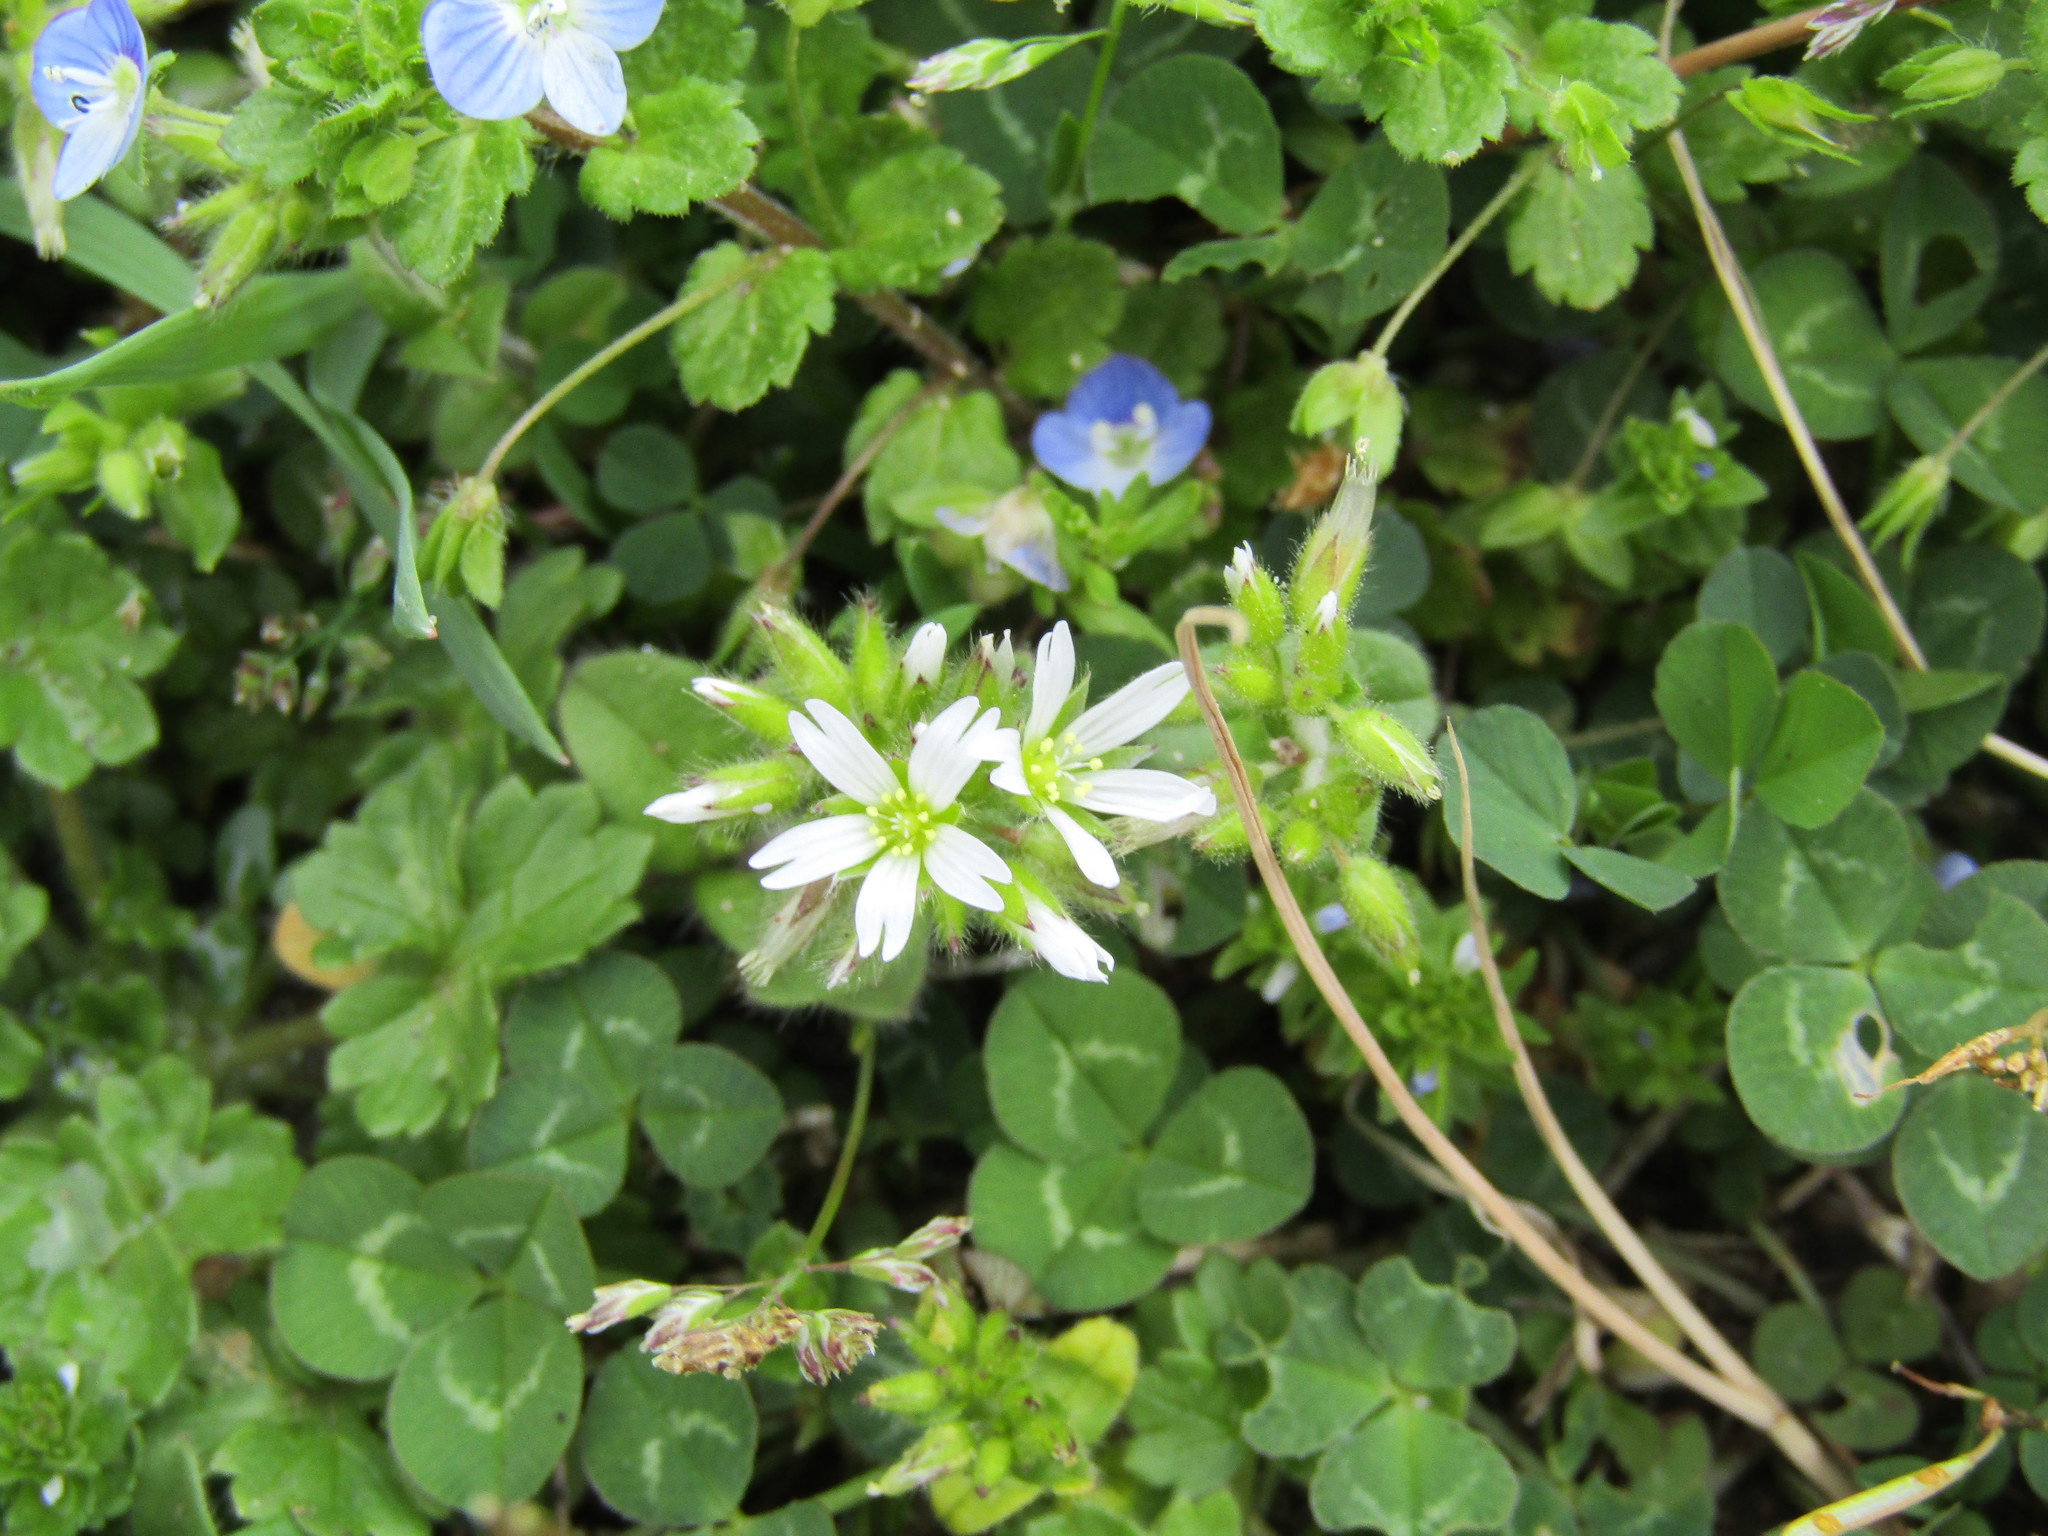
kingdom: Plantae
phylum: Tracheophyta
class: Magnoliopsida
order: Caryophyllales
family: Caryophyllaceae
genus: Cerastium
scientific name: Cerastium glomeratum
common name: Sticky chickweed
